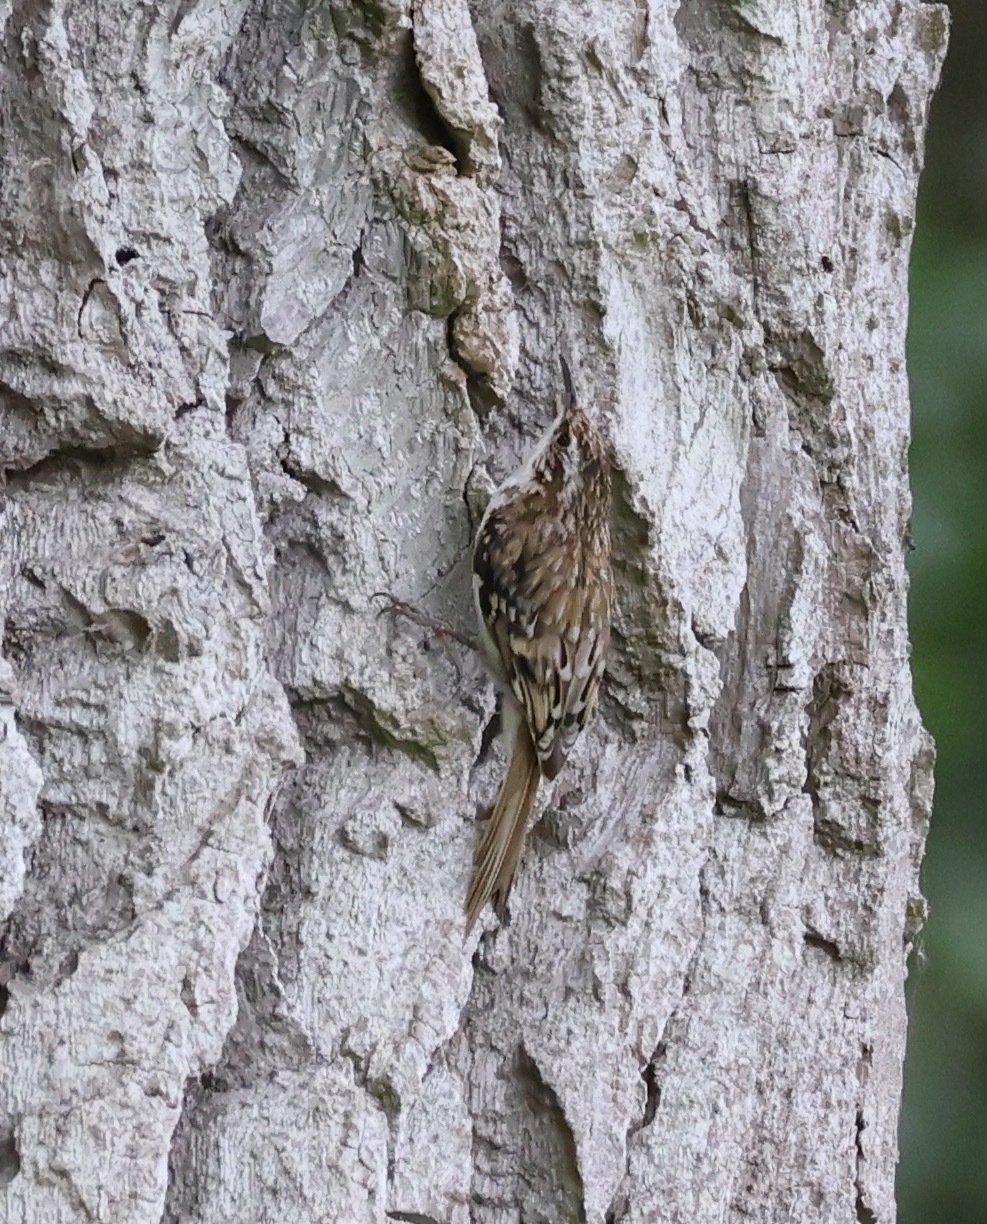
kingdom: Animalia
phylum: Chordata
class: Aves
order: Passeriformes
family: Certhiidae
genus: Certhia
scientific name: Certhia familiaris
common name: Eurasian treecreeper
